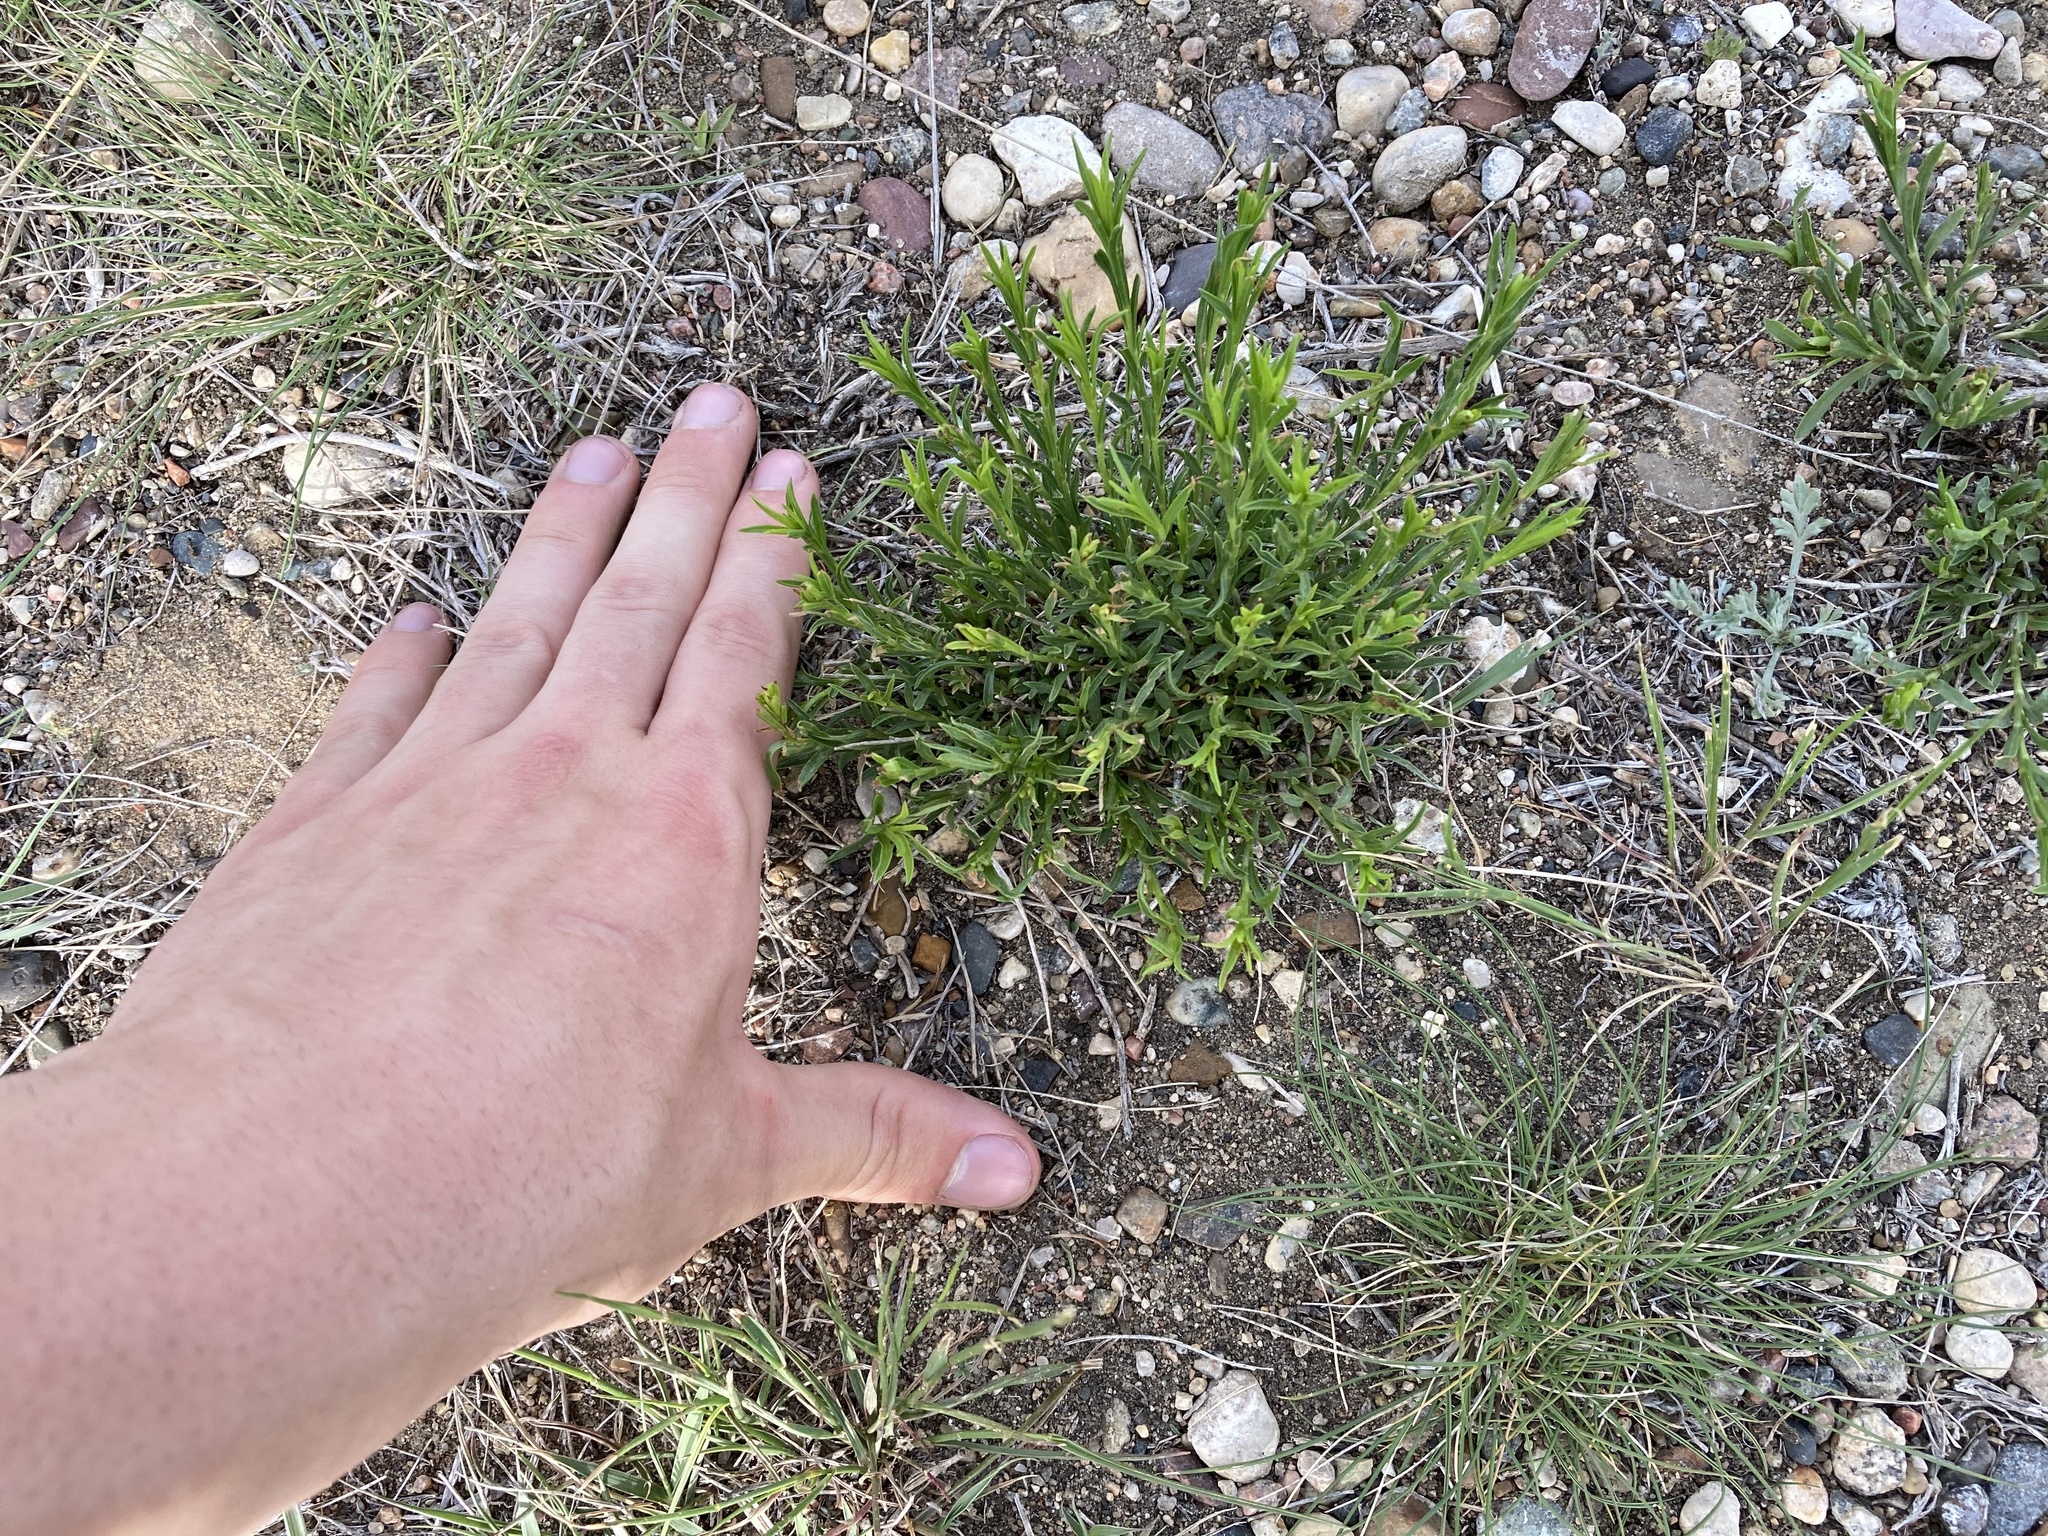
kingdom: Plantae
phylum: Tracheophyta
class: Magnoliopsida
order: Asterales
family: Asteraceae
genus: Gutierrezia
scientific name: Gutierrezia sarothrae
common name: Broom snakeweed
